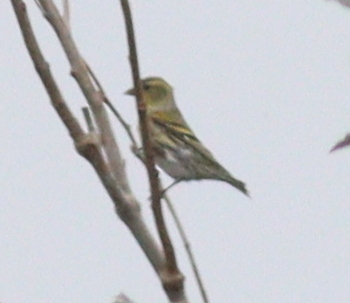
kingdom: Animalia
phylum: Chordata
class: Aves
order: Passeriformes
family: Fringillidae
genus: Spinus
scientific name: Spinus spinus
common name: Eurasian siskin
